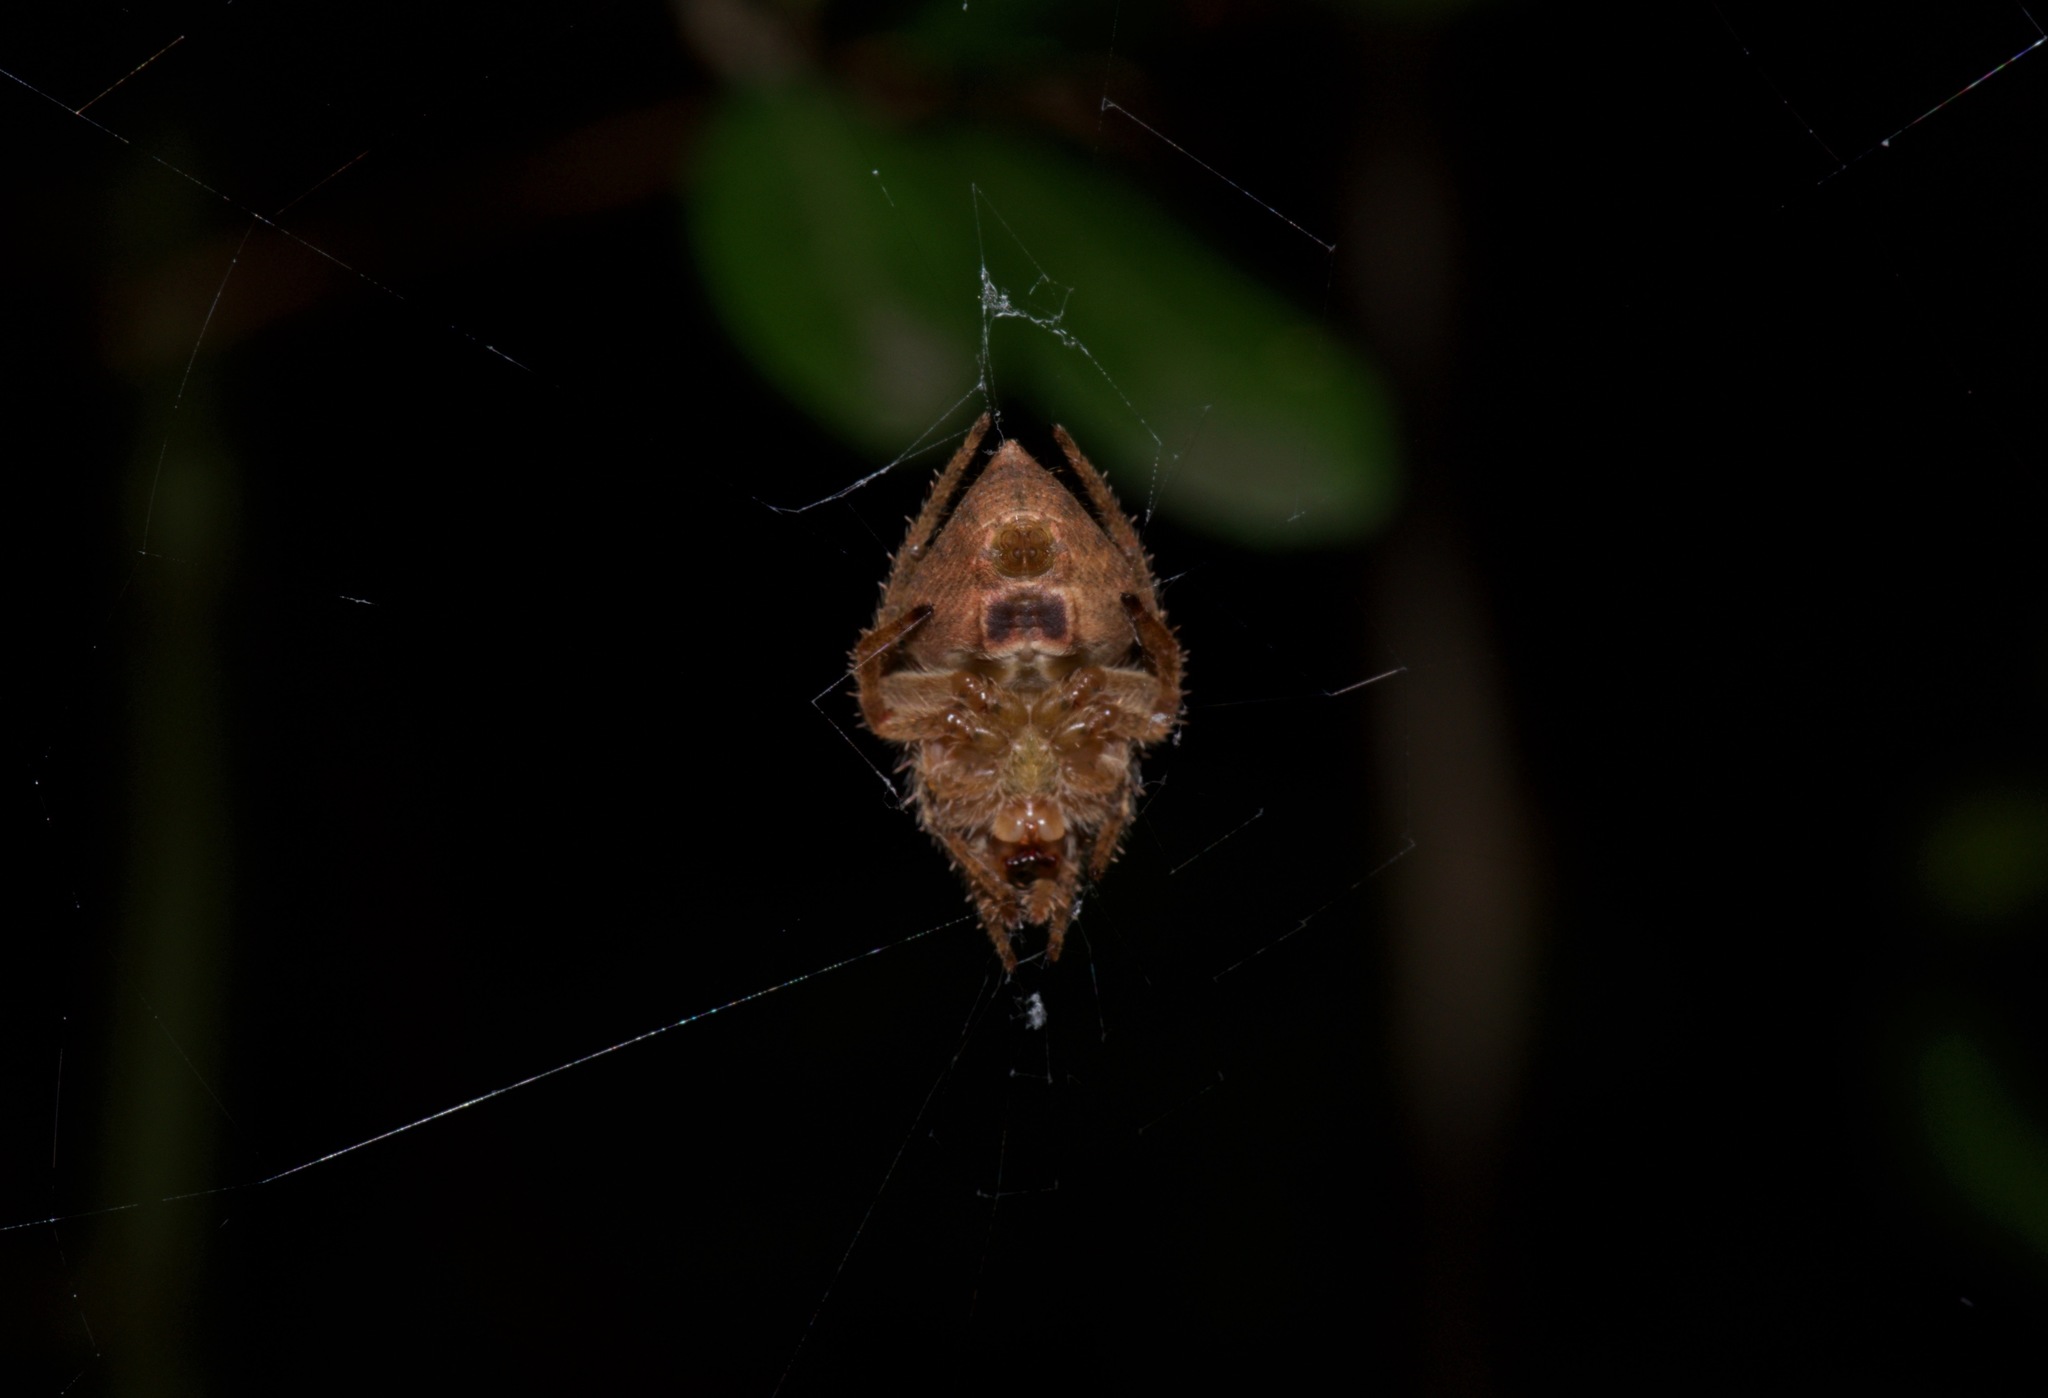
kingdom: Animalia
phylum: Arthropoda
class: Arachnida
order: Araneae
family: Araneidae
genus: Eriophora
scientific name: Eriophora ravilla
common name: Orb weavers
